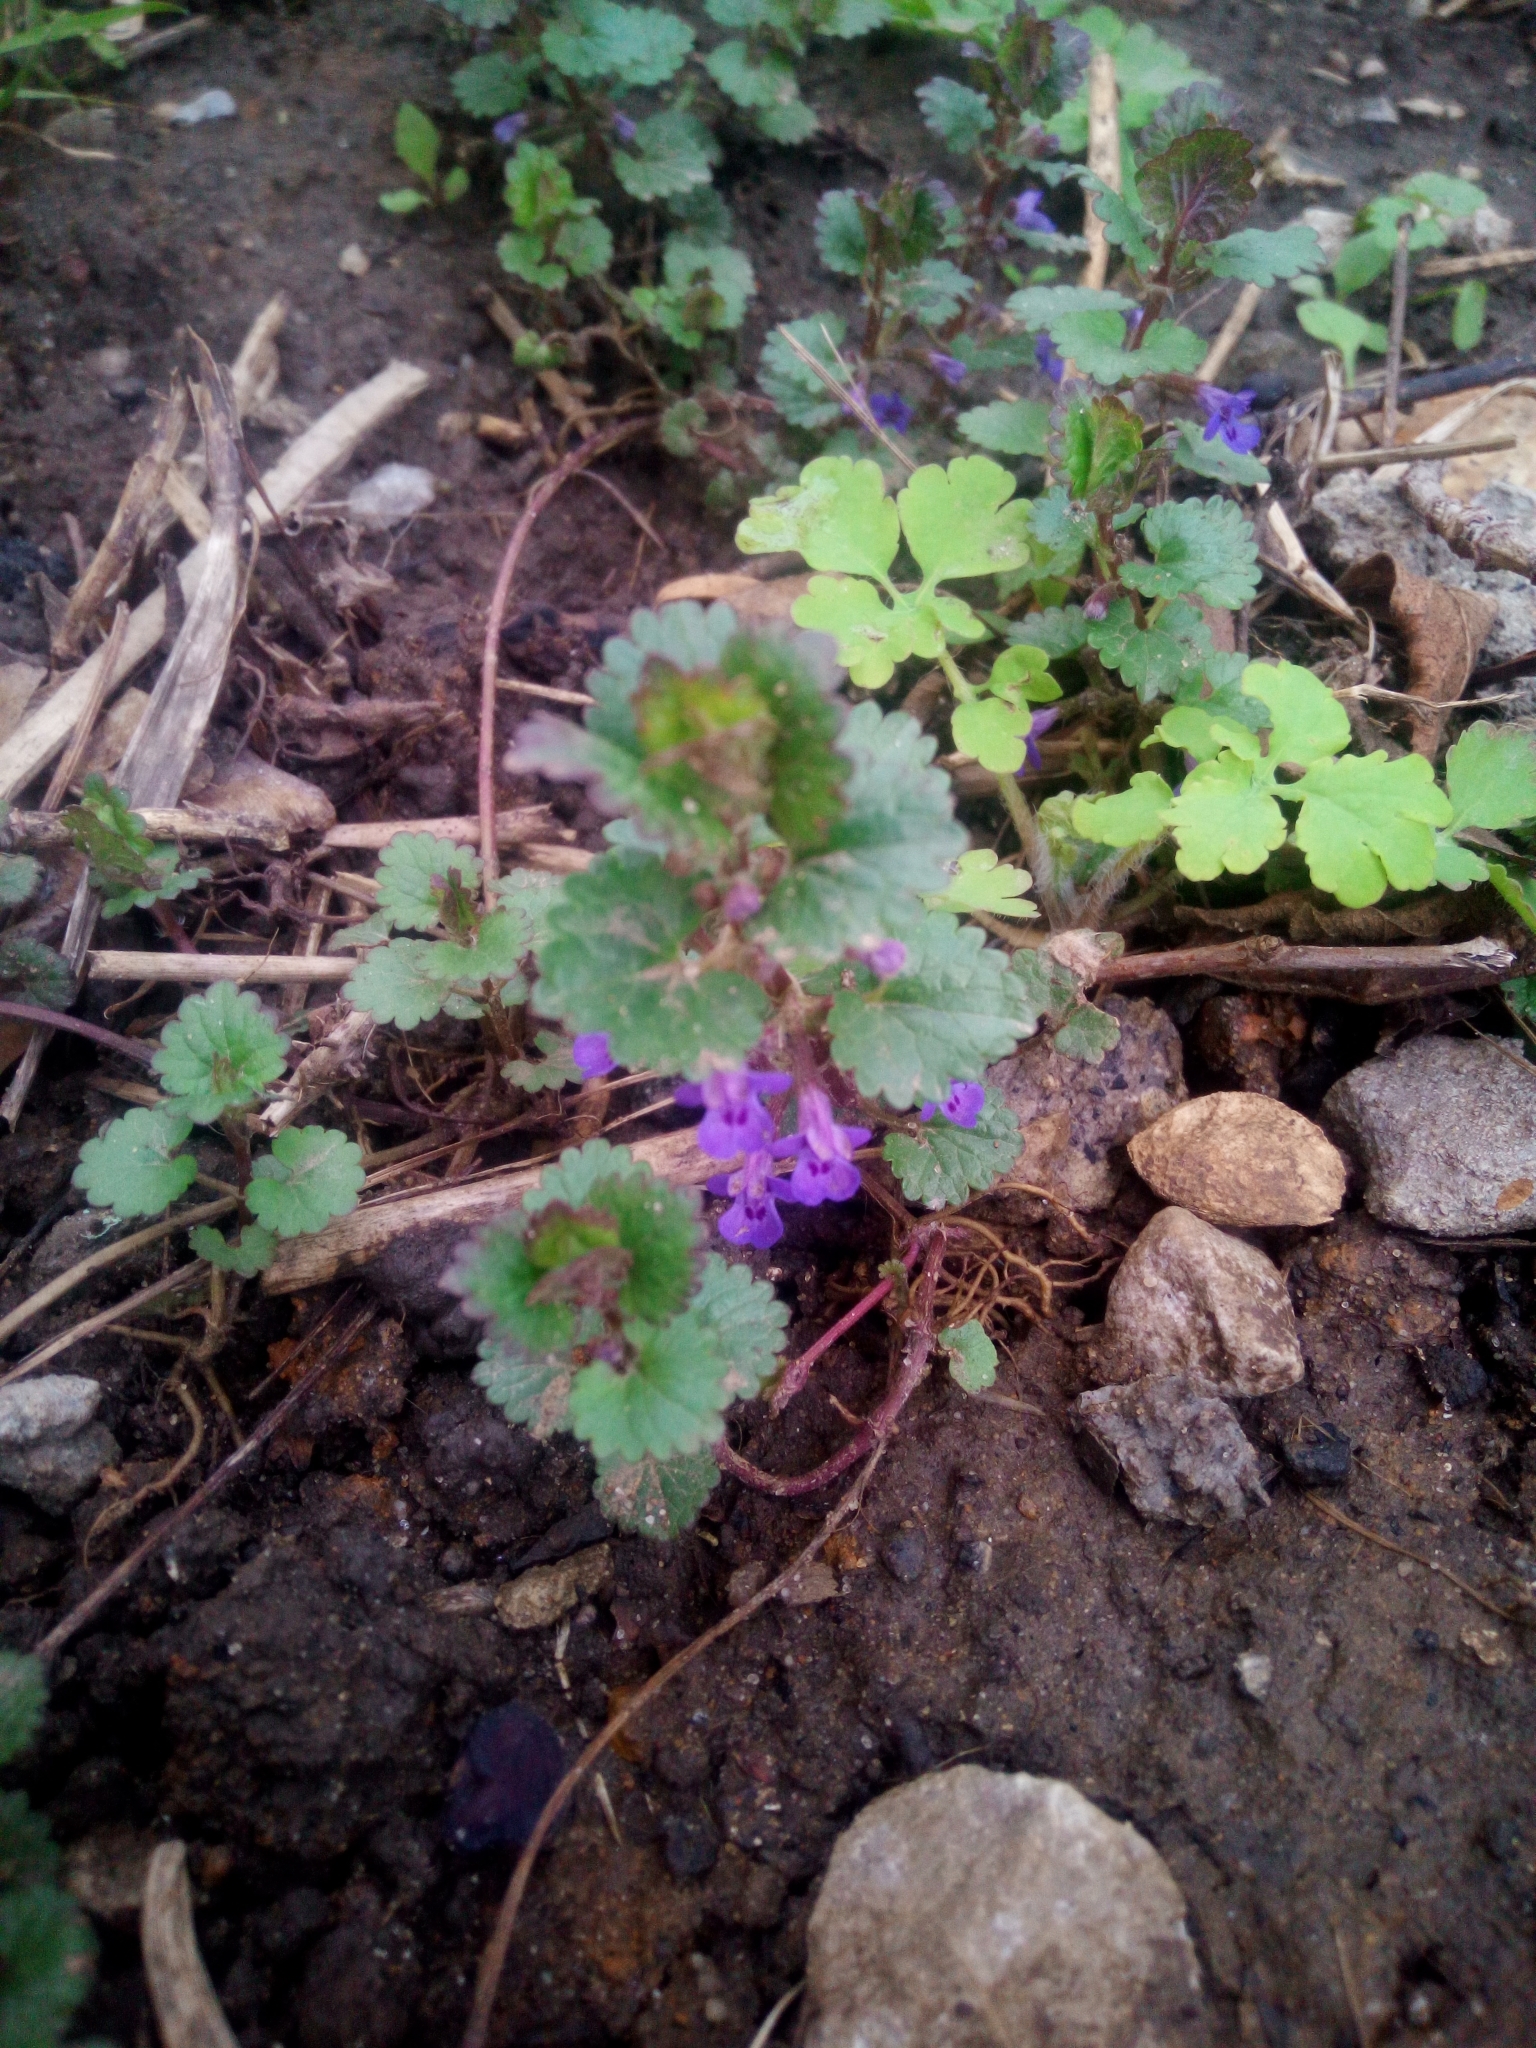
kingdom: Plantae
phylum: Tracheophyta
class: Magnoliopsida
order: Lamiales
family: Lamiaceae
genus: Glechoma
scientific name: Glechoma hederacea
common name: Ground ivy
